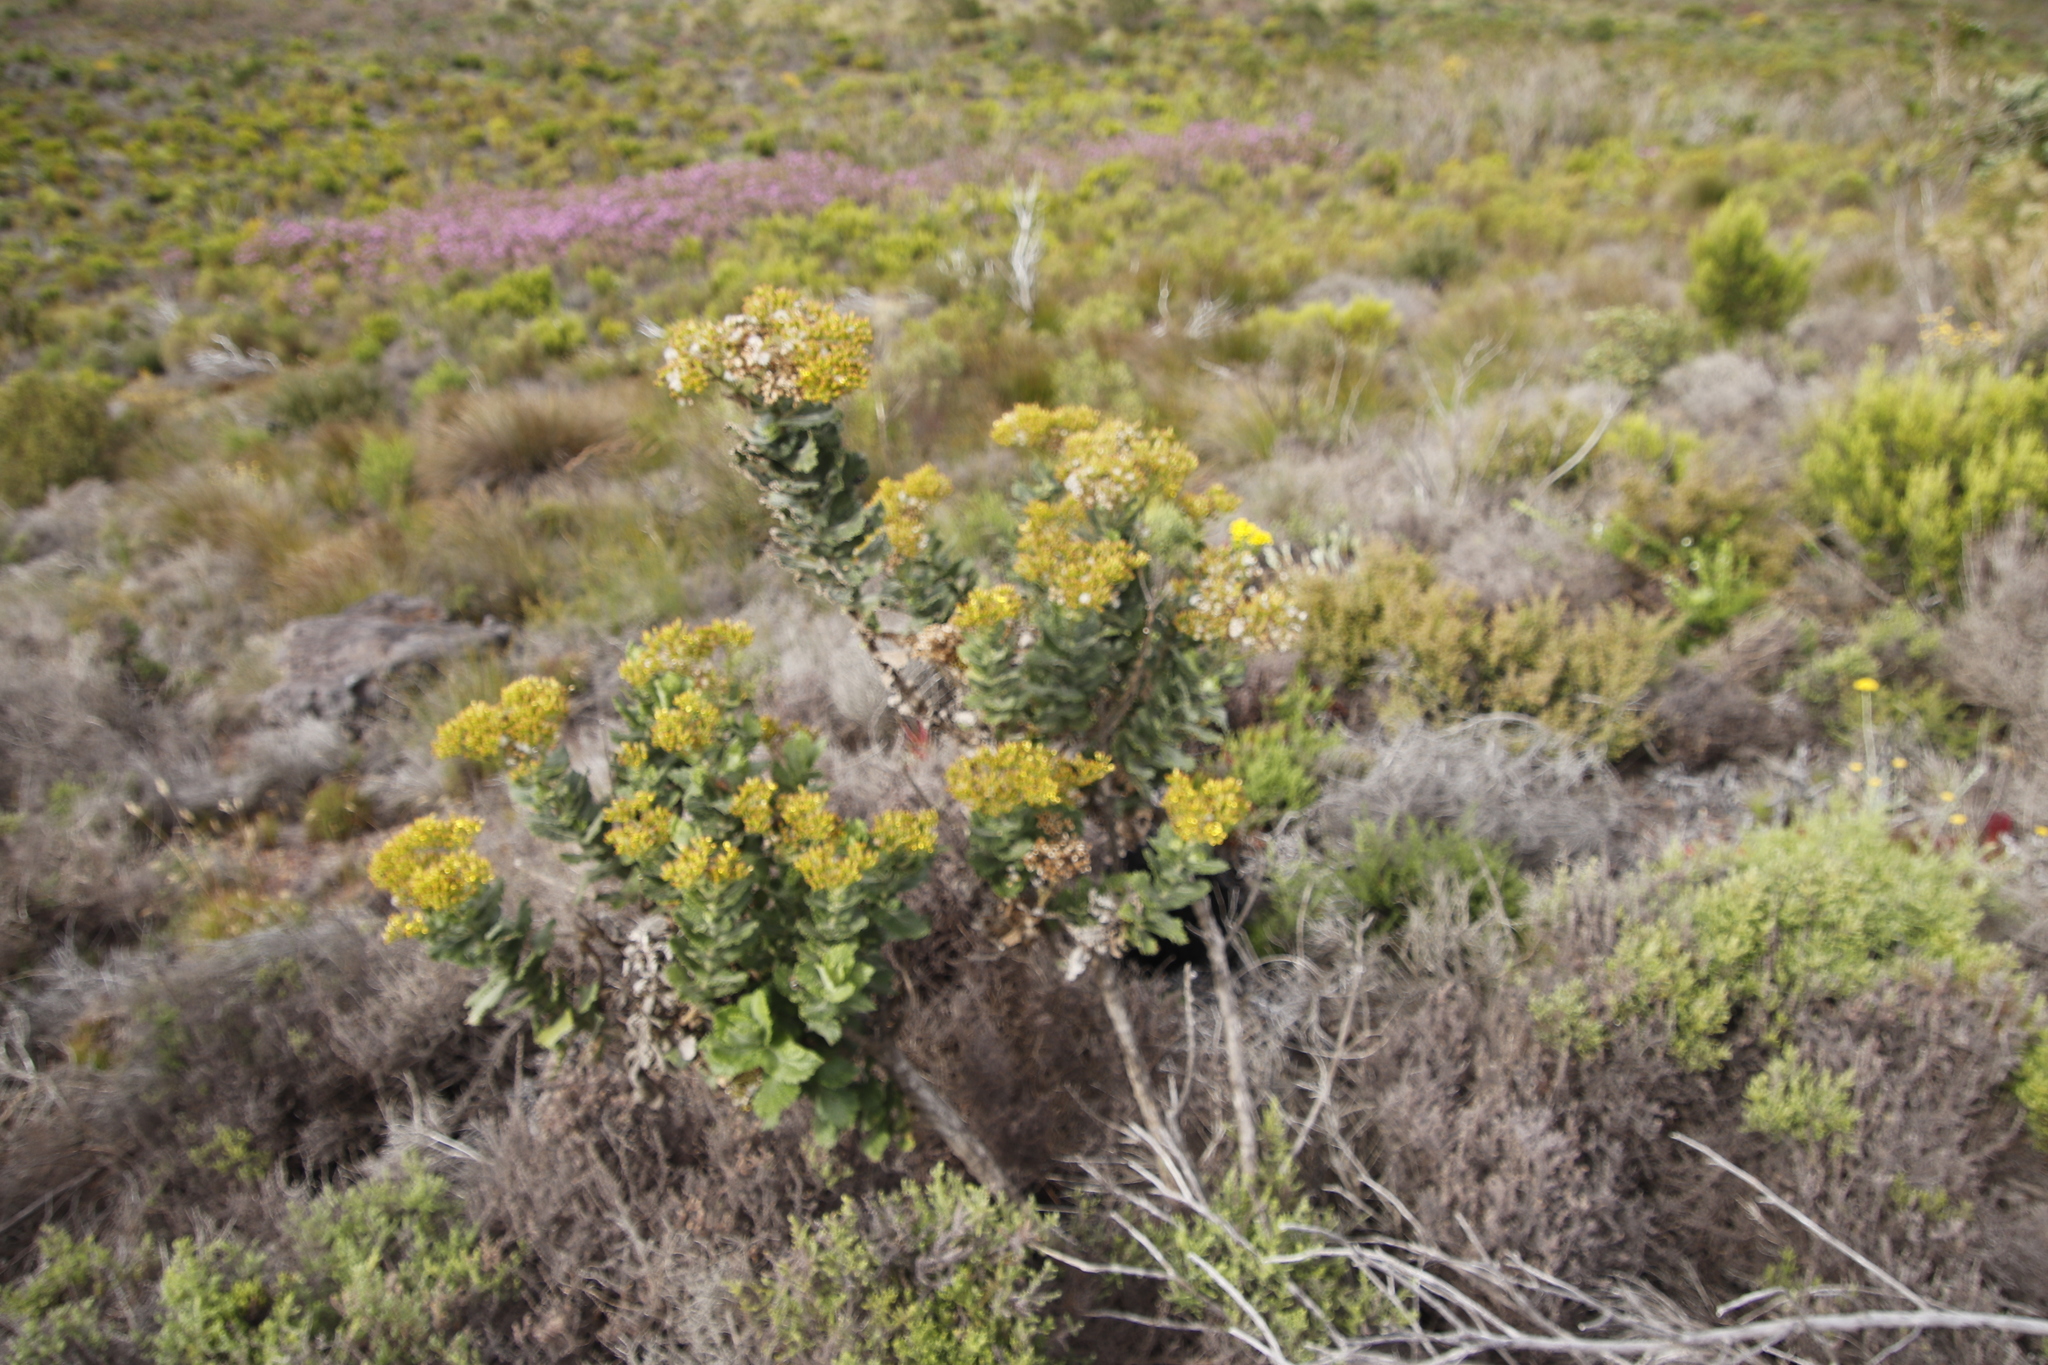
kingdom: Plantae
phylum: Tracheophyta
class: Magnoliopsida
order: Asterales
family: Asteraceae
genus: Senecio
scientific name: Senecio rigidus
